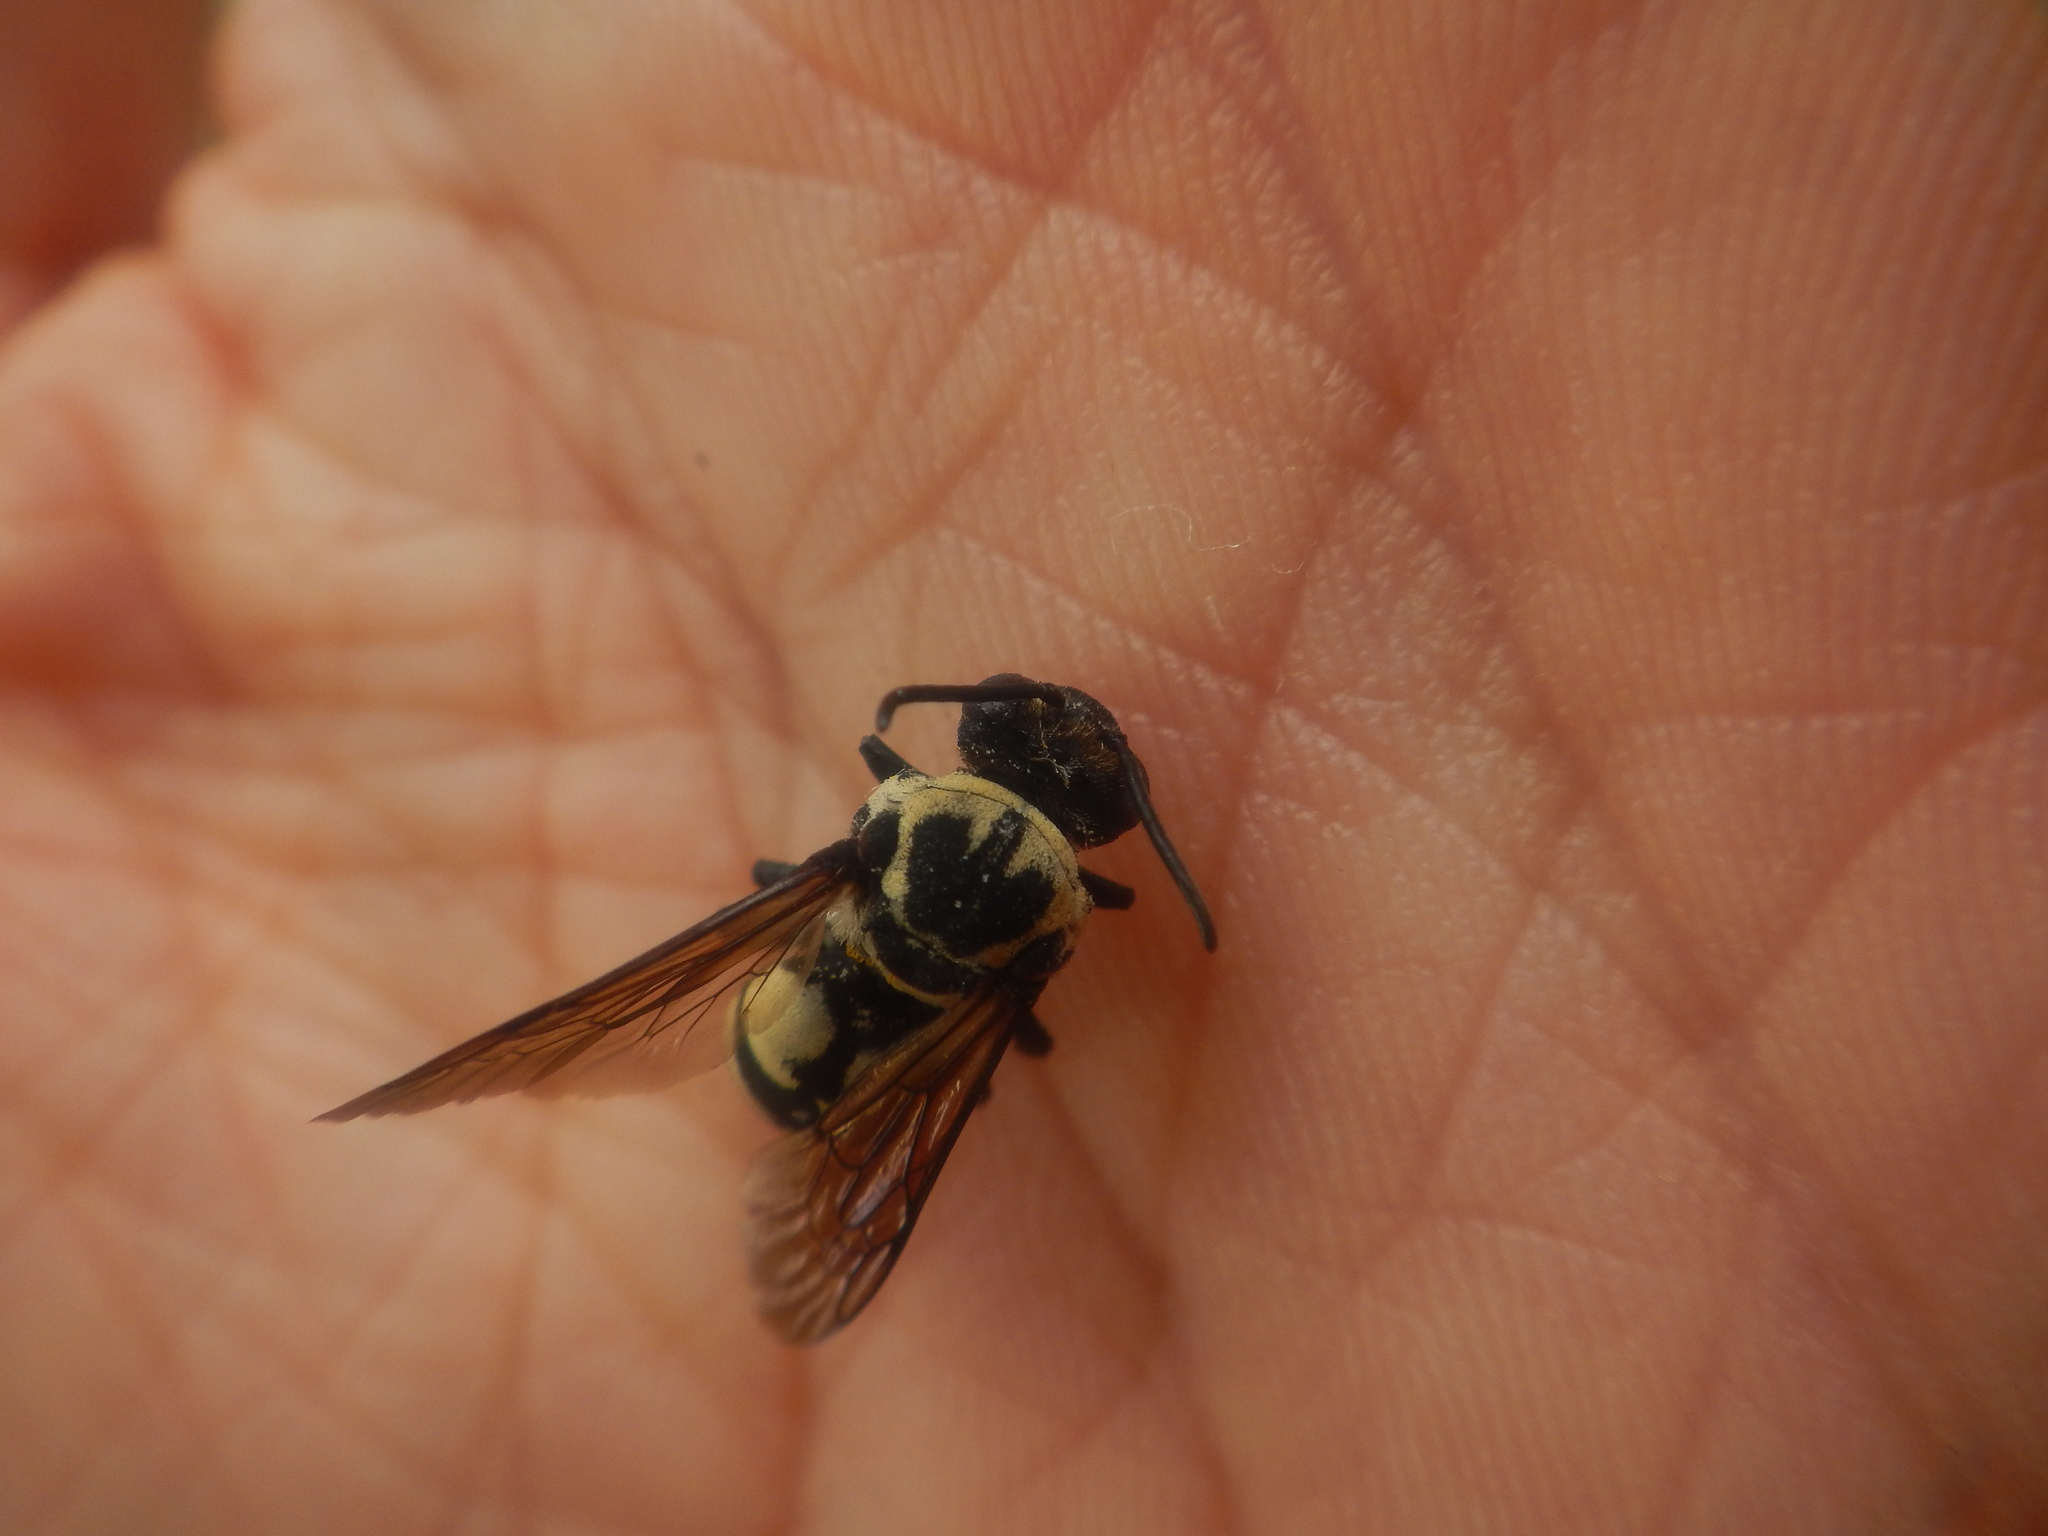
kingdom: Animalia
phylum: Arthropoda
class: Insecta
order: Hymenoptera
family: Apidae
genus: Triepeolus
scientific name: Triepeolus remigatus
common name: Squash longhorn-cuckoo
